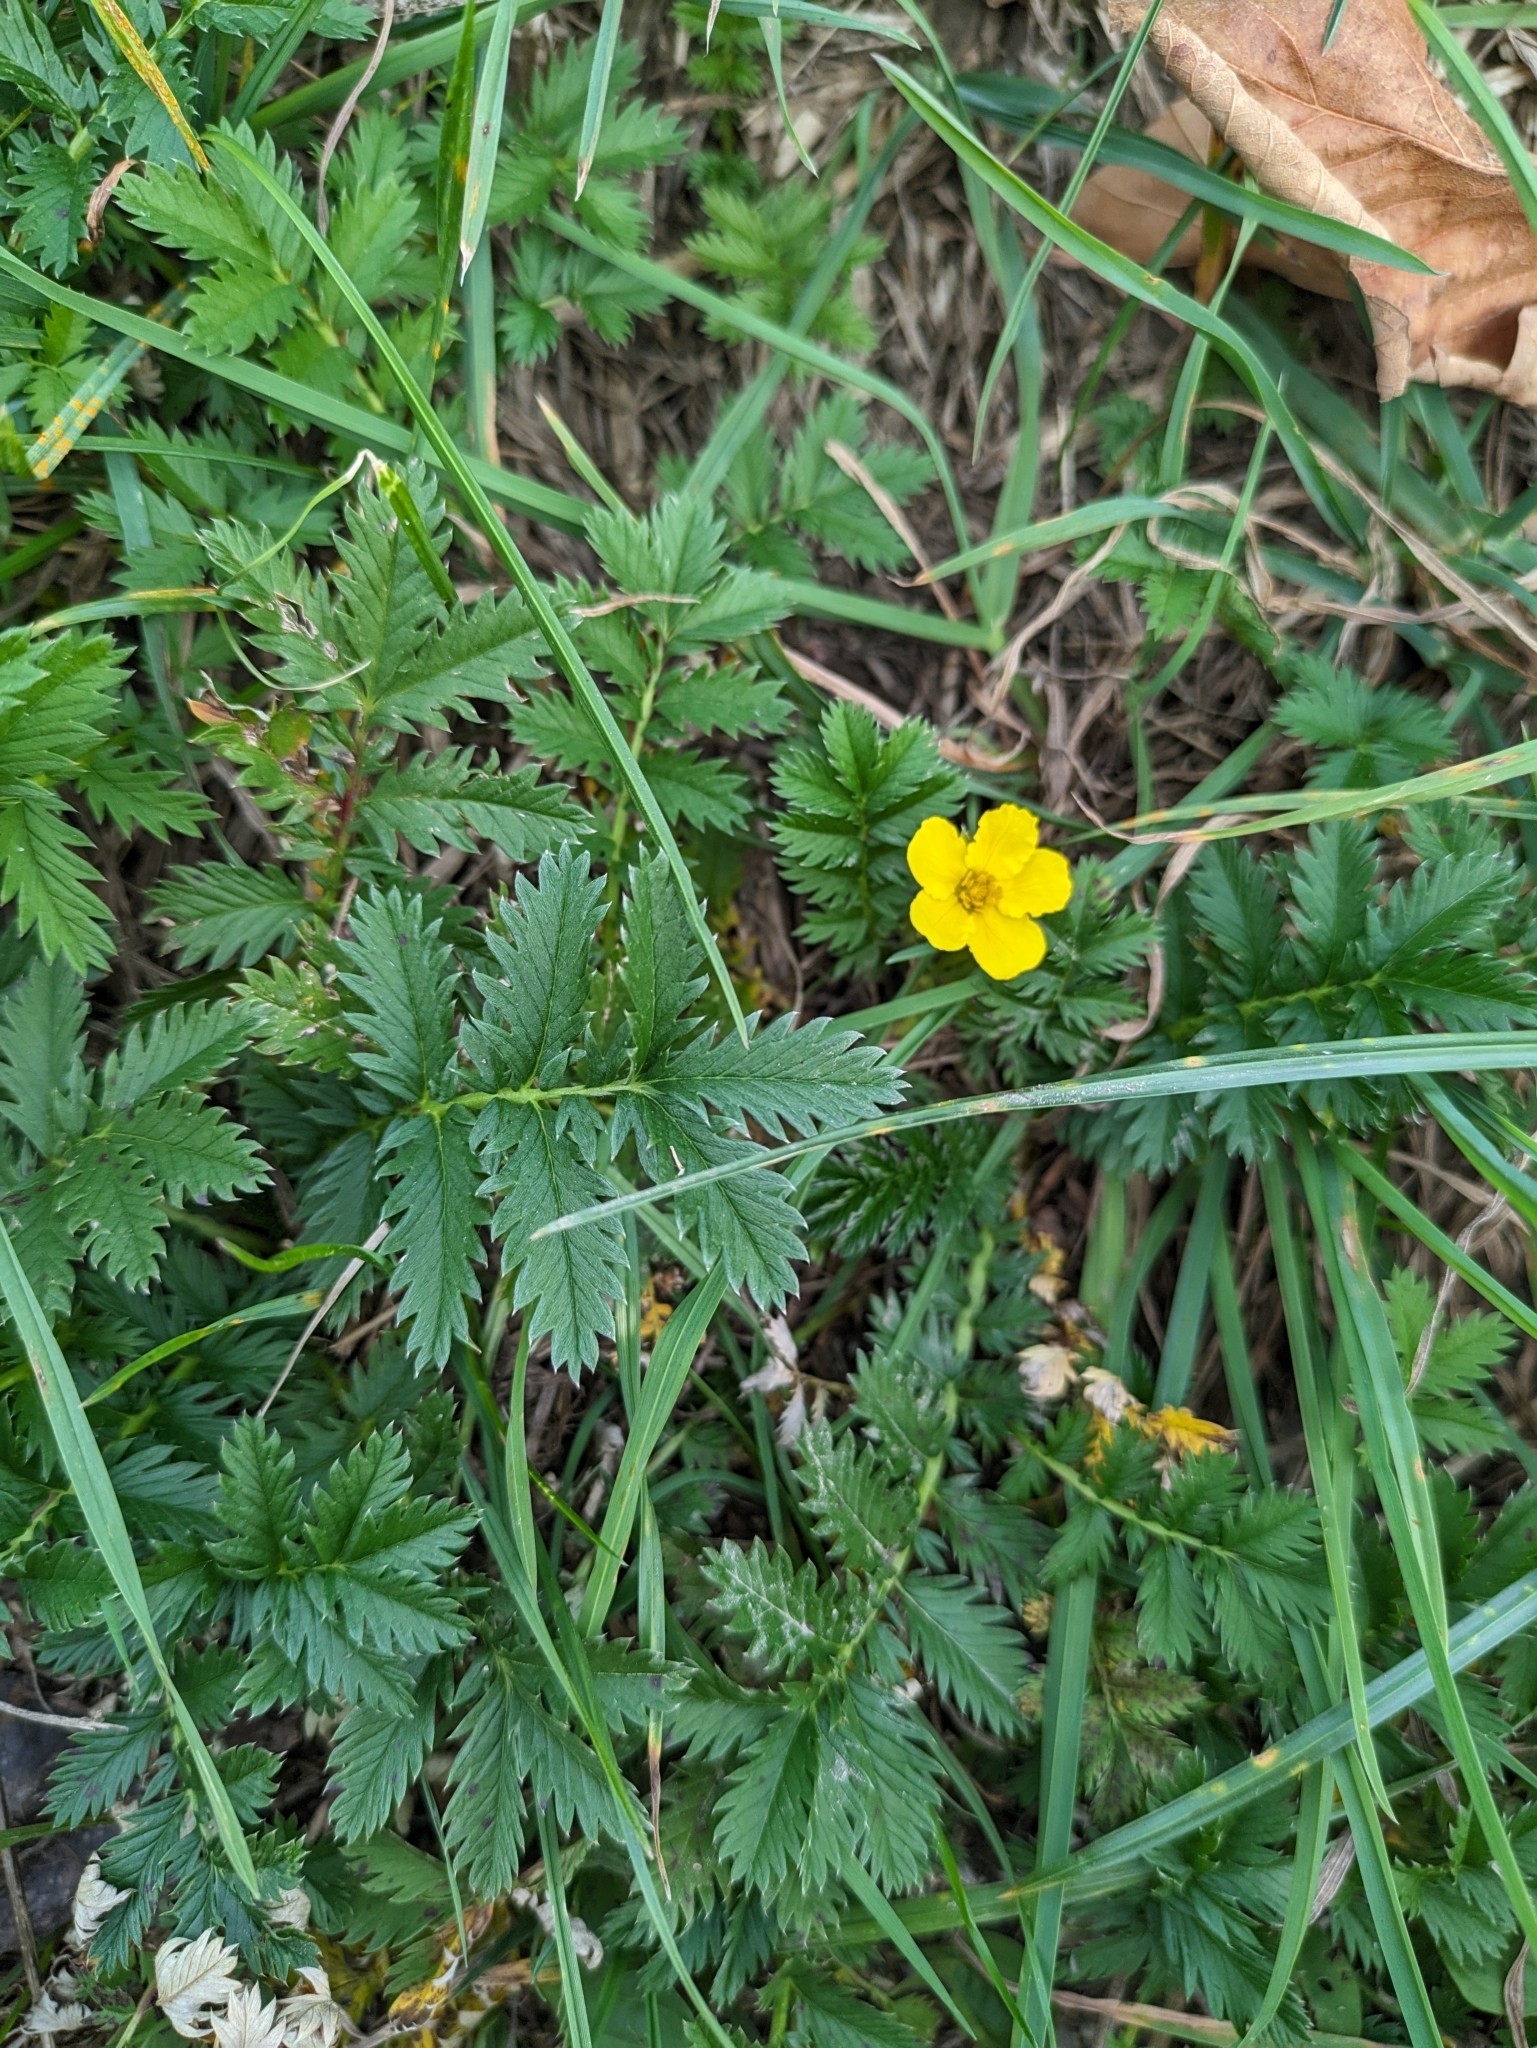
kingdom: Plantae
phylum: Tracheophyta
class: Magnoliopsida
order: Rosales
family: Rosaceae
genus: Argentina
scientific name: Argentina anserina
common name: Common silverweed
